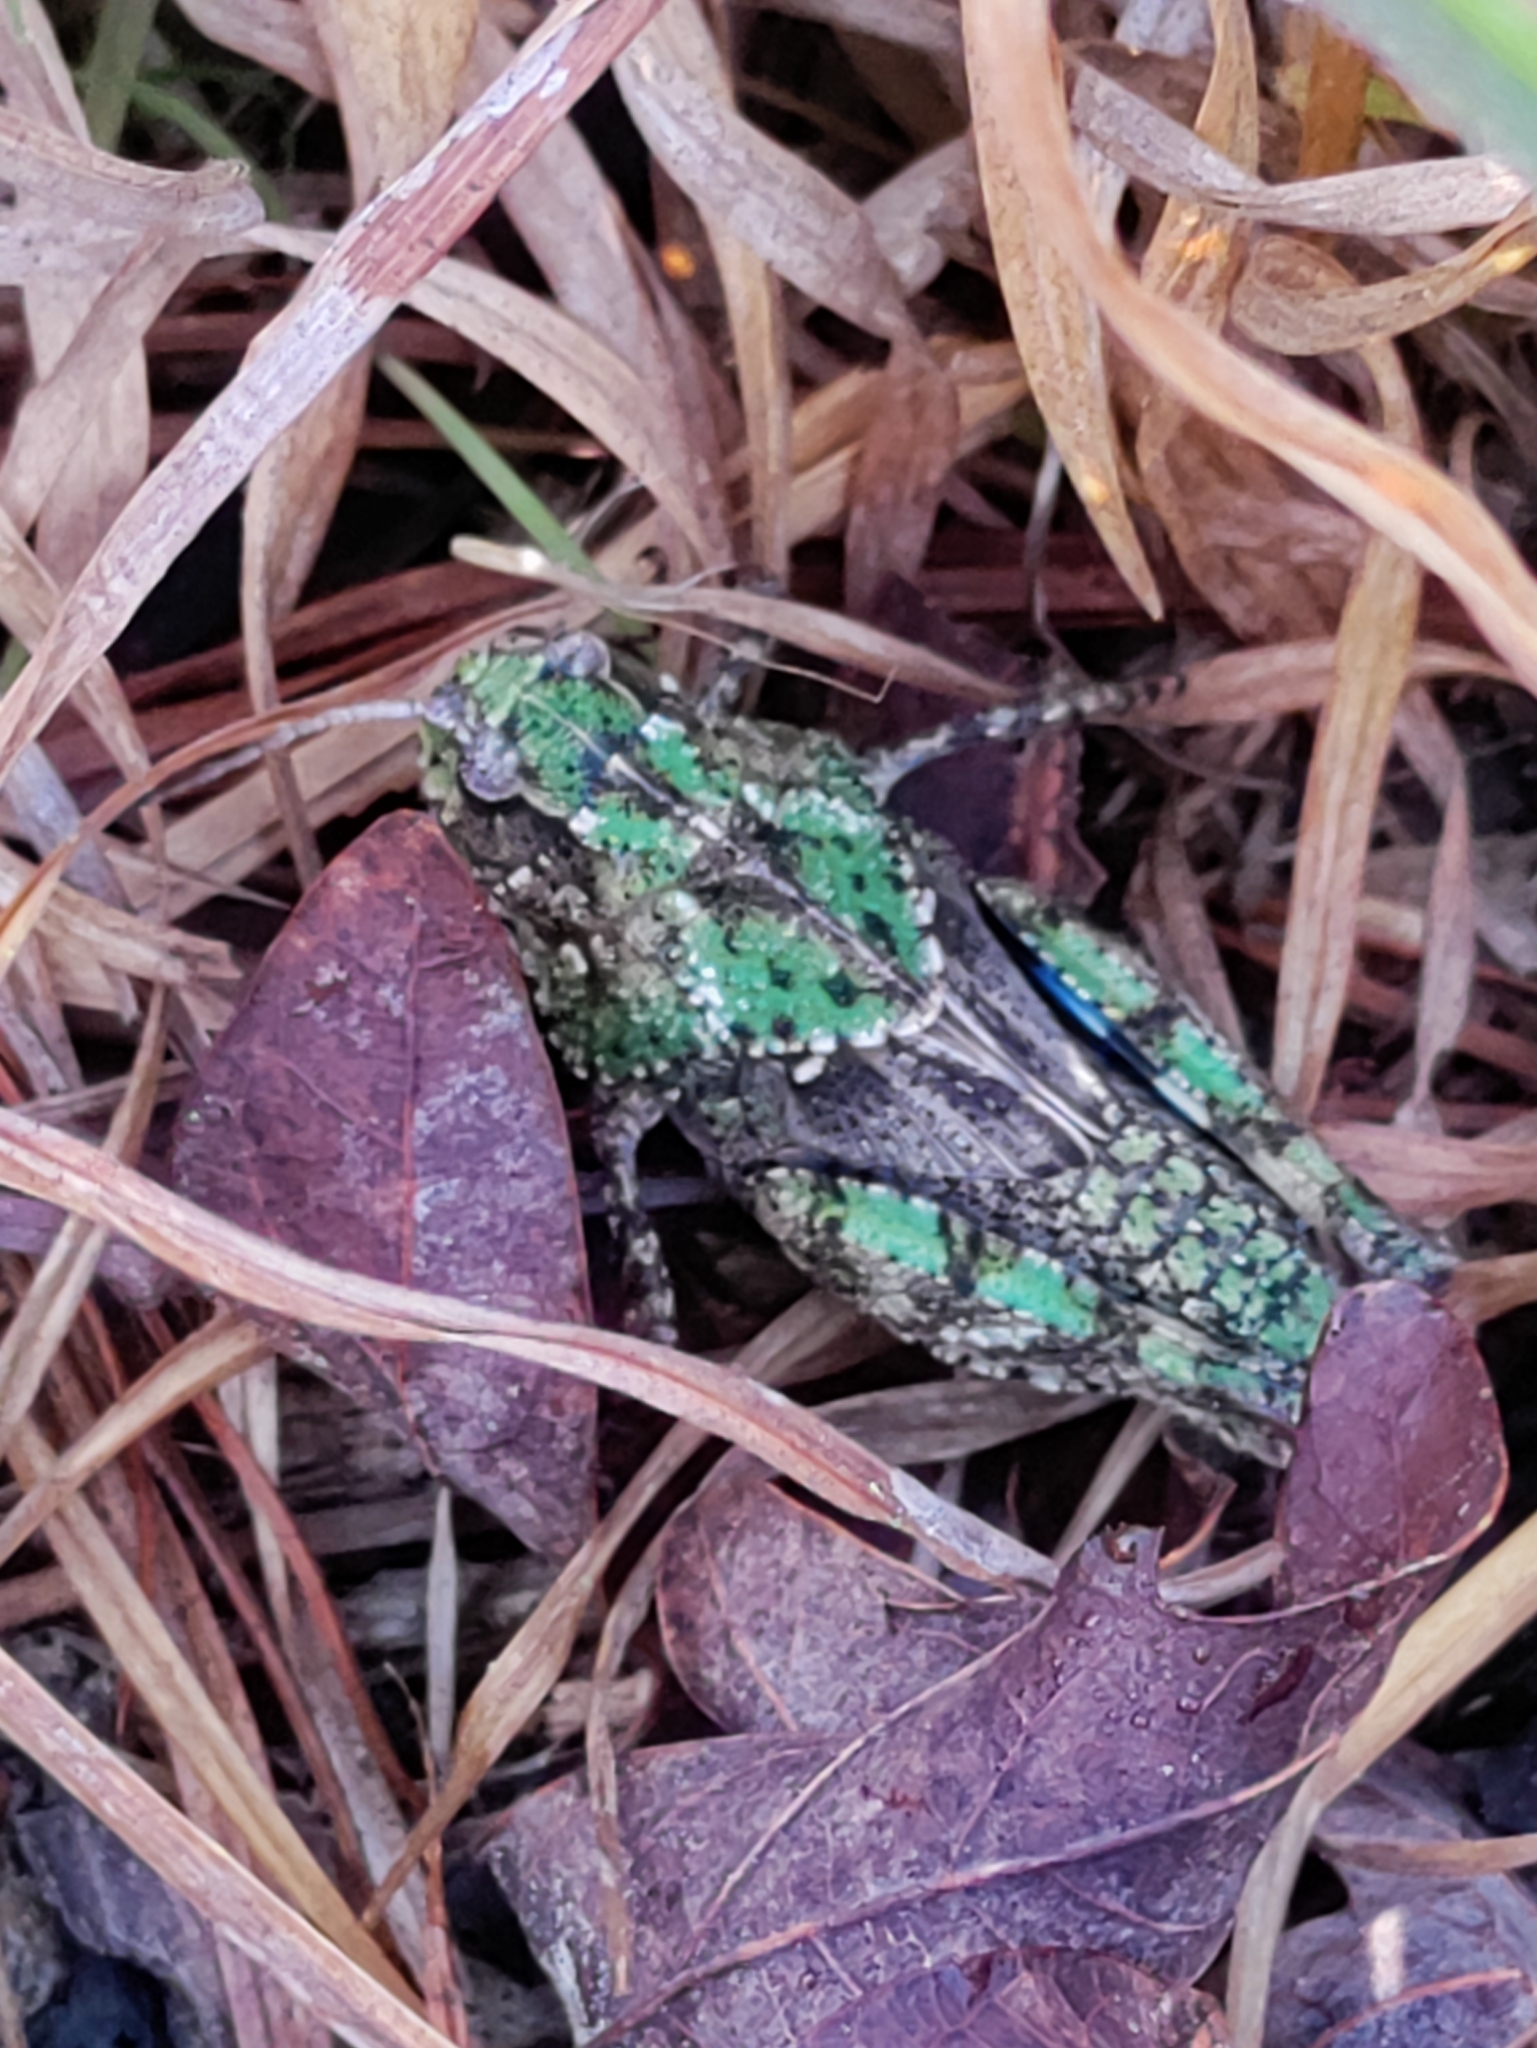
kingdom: Animalia
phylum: Arthropoda
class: Insecta
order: Orthoptera
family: Acrididae
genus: Pardalophora
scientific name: Pardalophora phoenicoptera
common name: Orange-winged grasshopper
